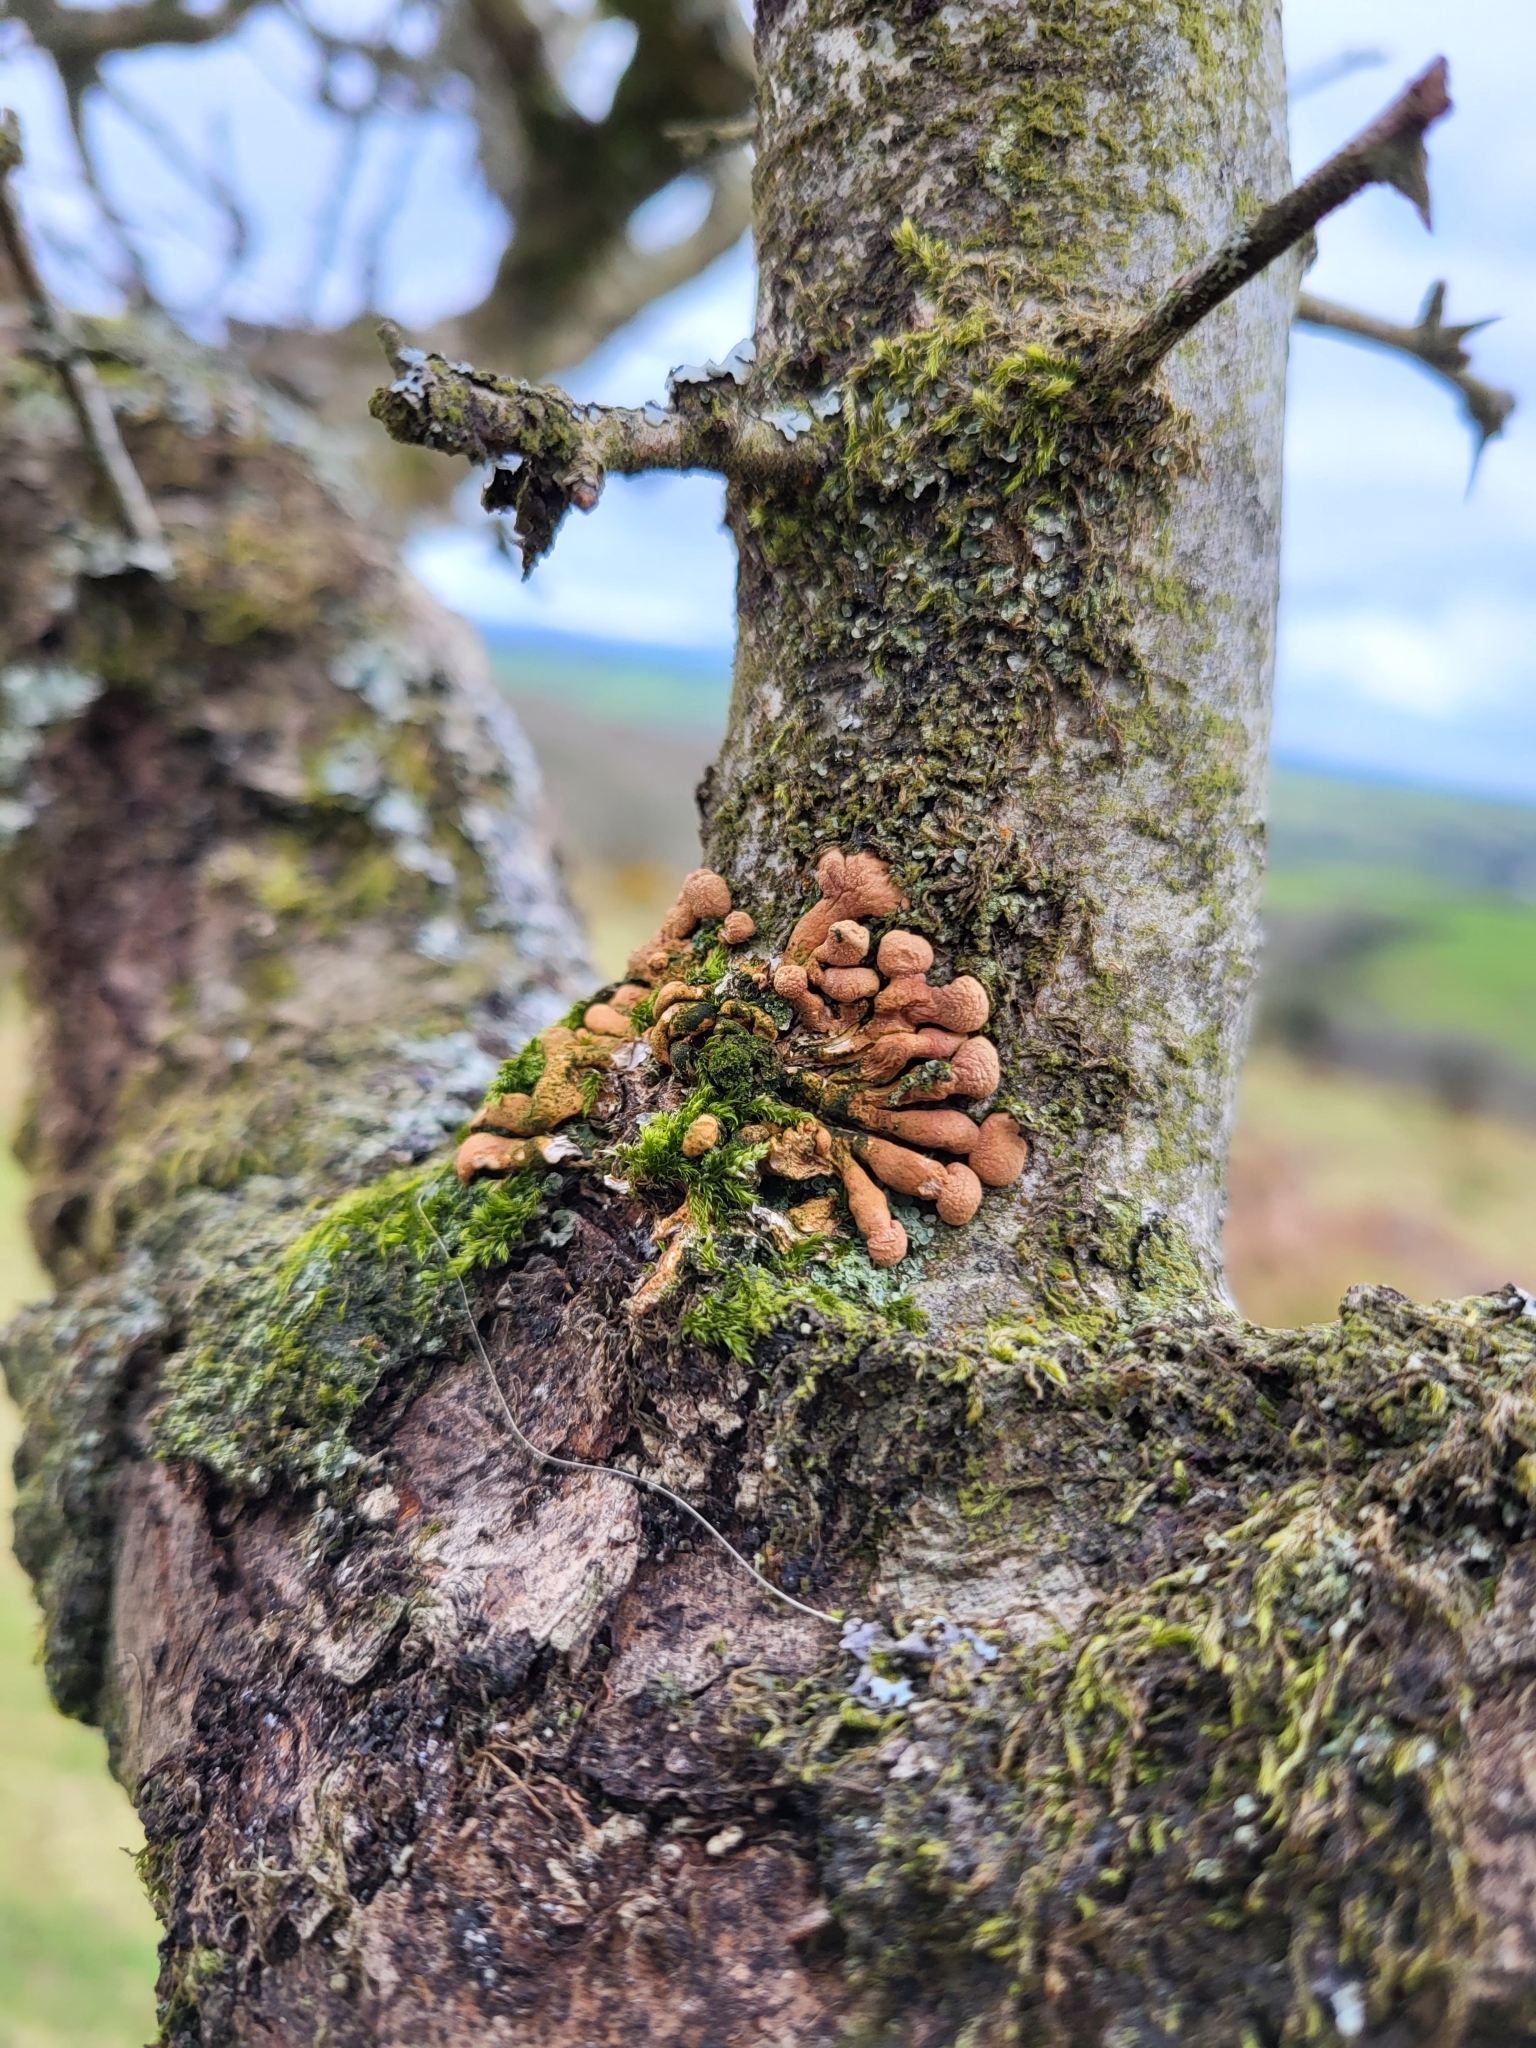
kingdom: Fungi
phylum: Ascomycota
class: Sordariomycetes
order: Hypocreales
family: Hypocreaceae
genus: Hypocreopsis
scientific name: Hypocreopsis rhododendri
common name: Hazel gloves
